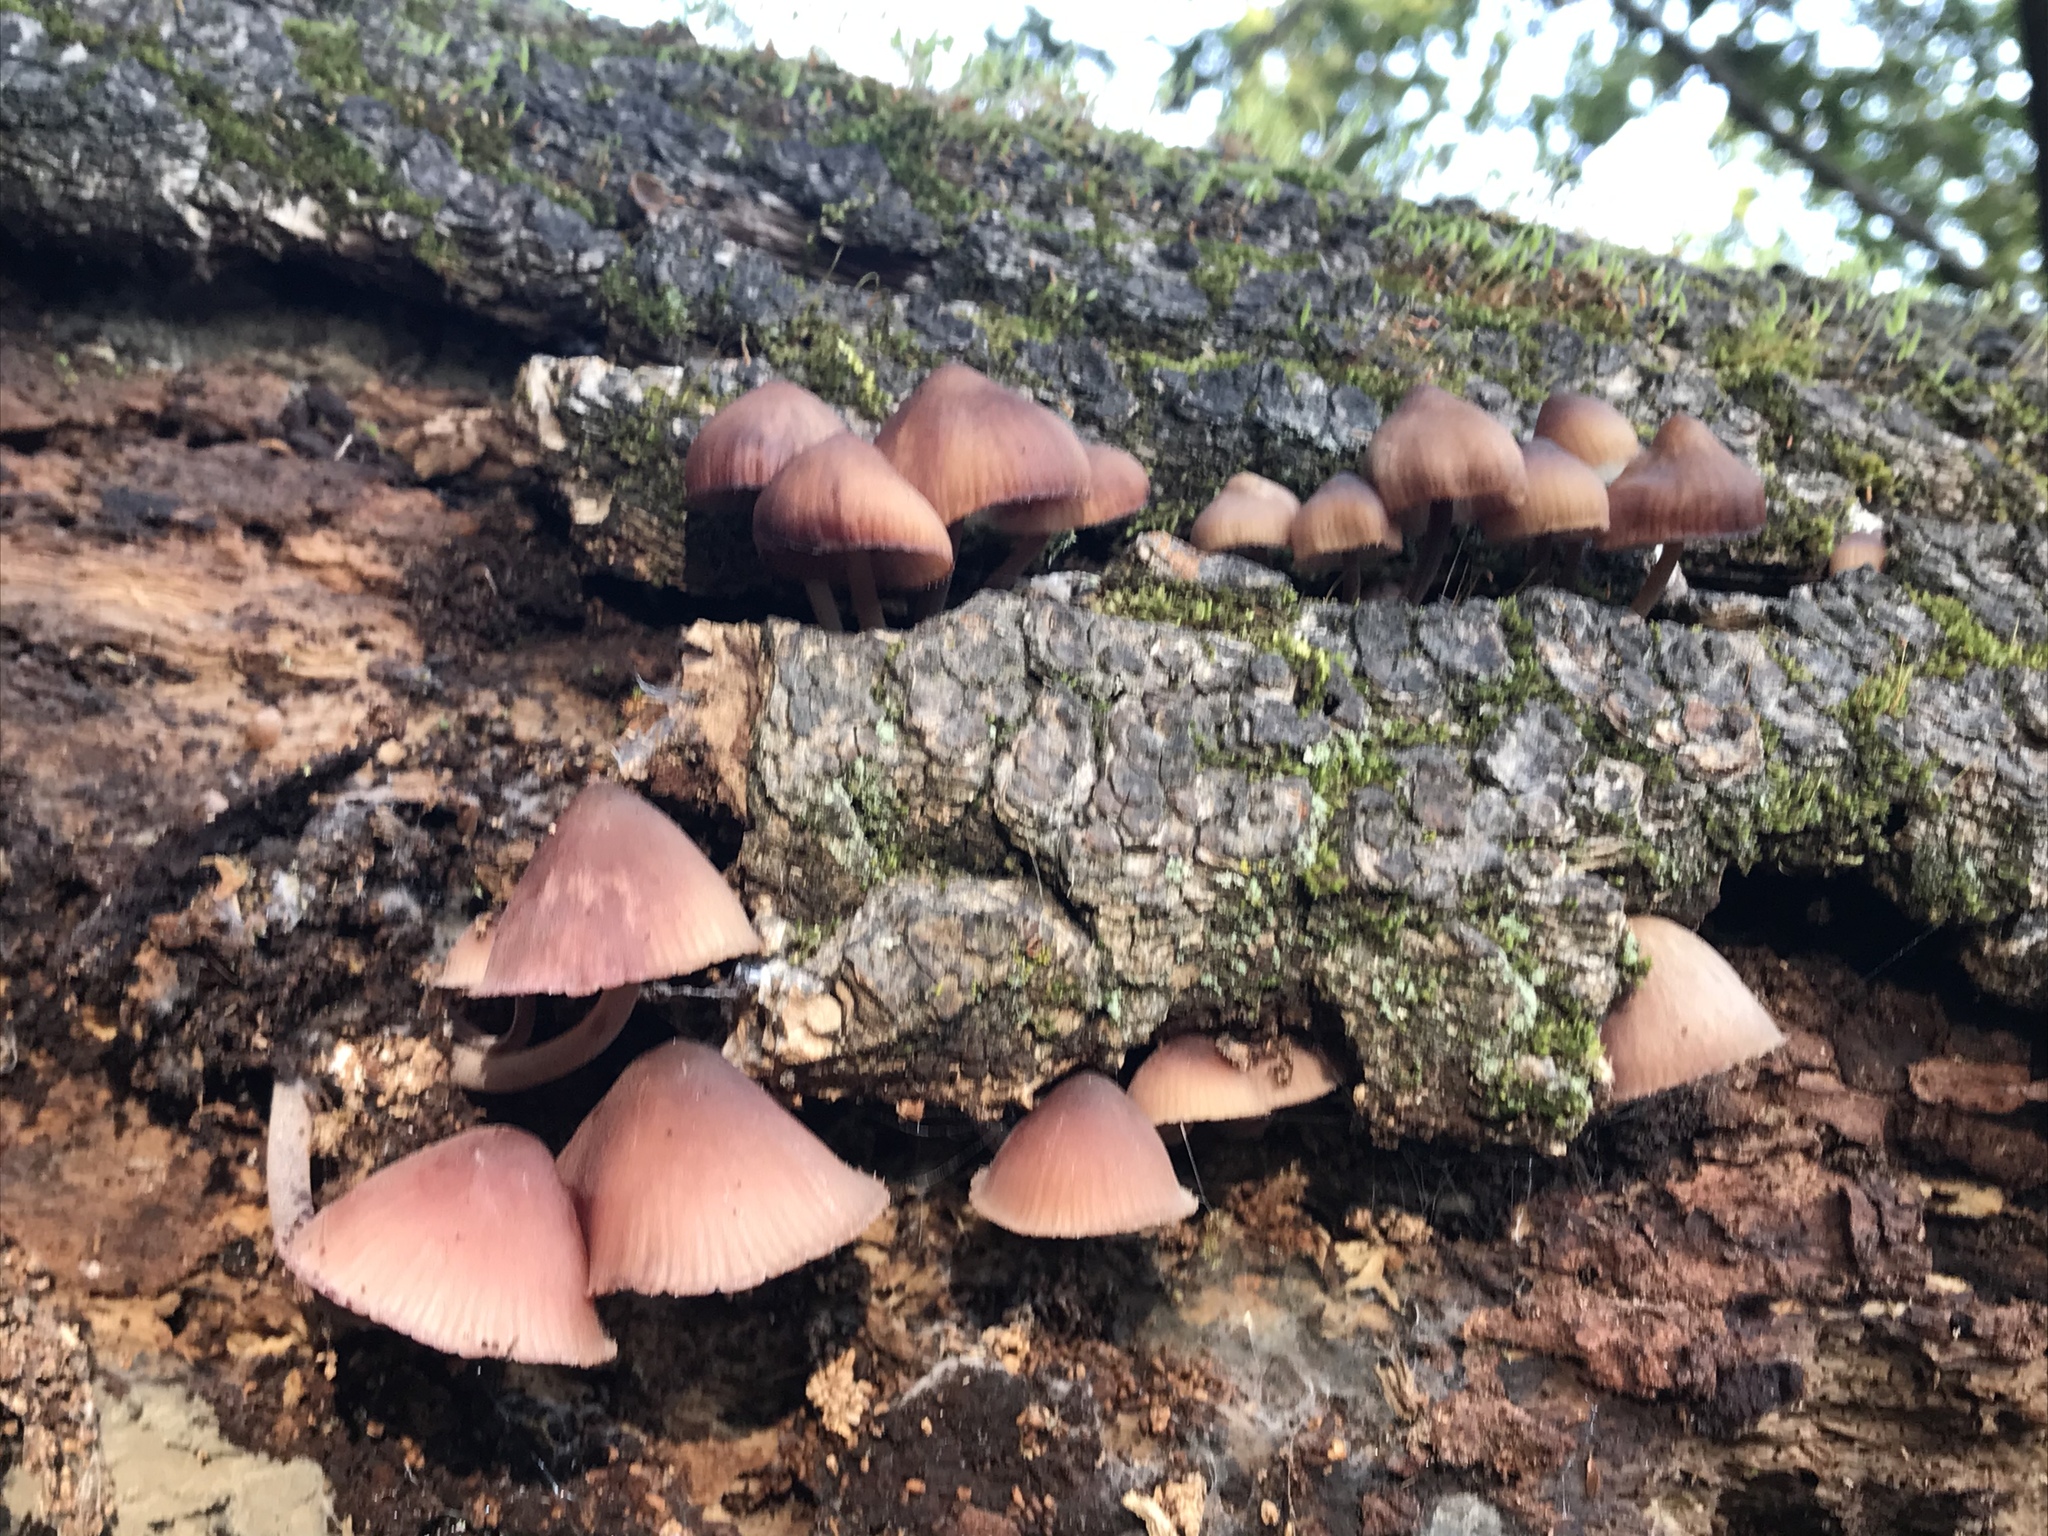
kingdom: Fungi
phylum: Basidiomycota
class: Agaricomycetes
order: Agaricales
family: Mycenaceae
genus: Mycena
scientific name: Mycena haematopus
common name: Burgundydrop bonnet
